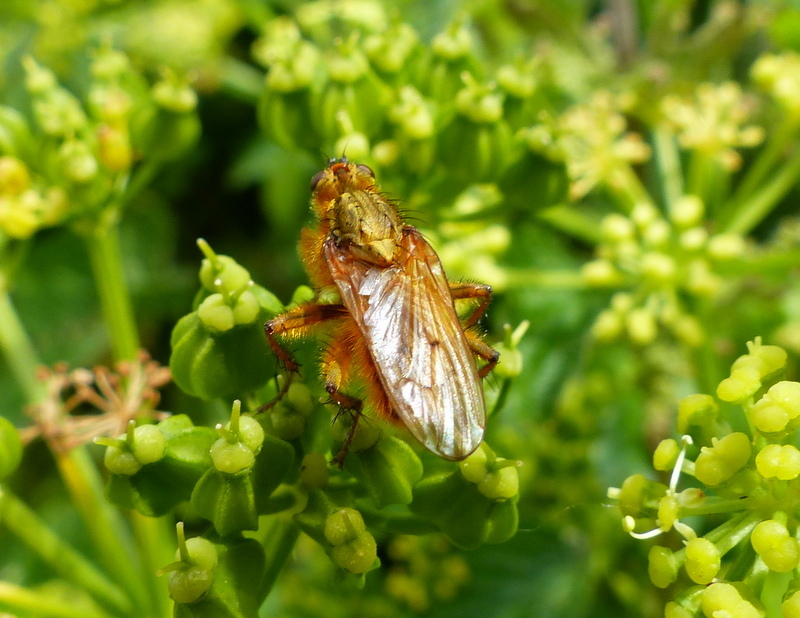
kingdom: Animalia
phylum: Arthropoda
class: Insecta
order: Diptera
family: Scathophagidae
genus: Scathophaga
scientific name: Scathophaga stercoraria
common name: Yellow dung fly
